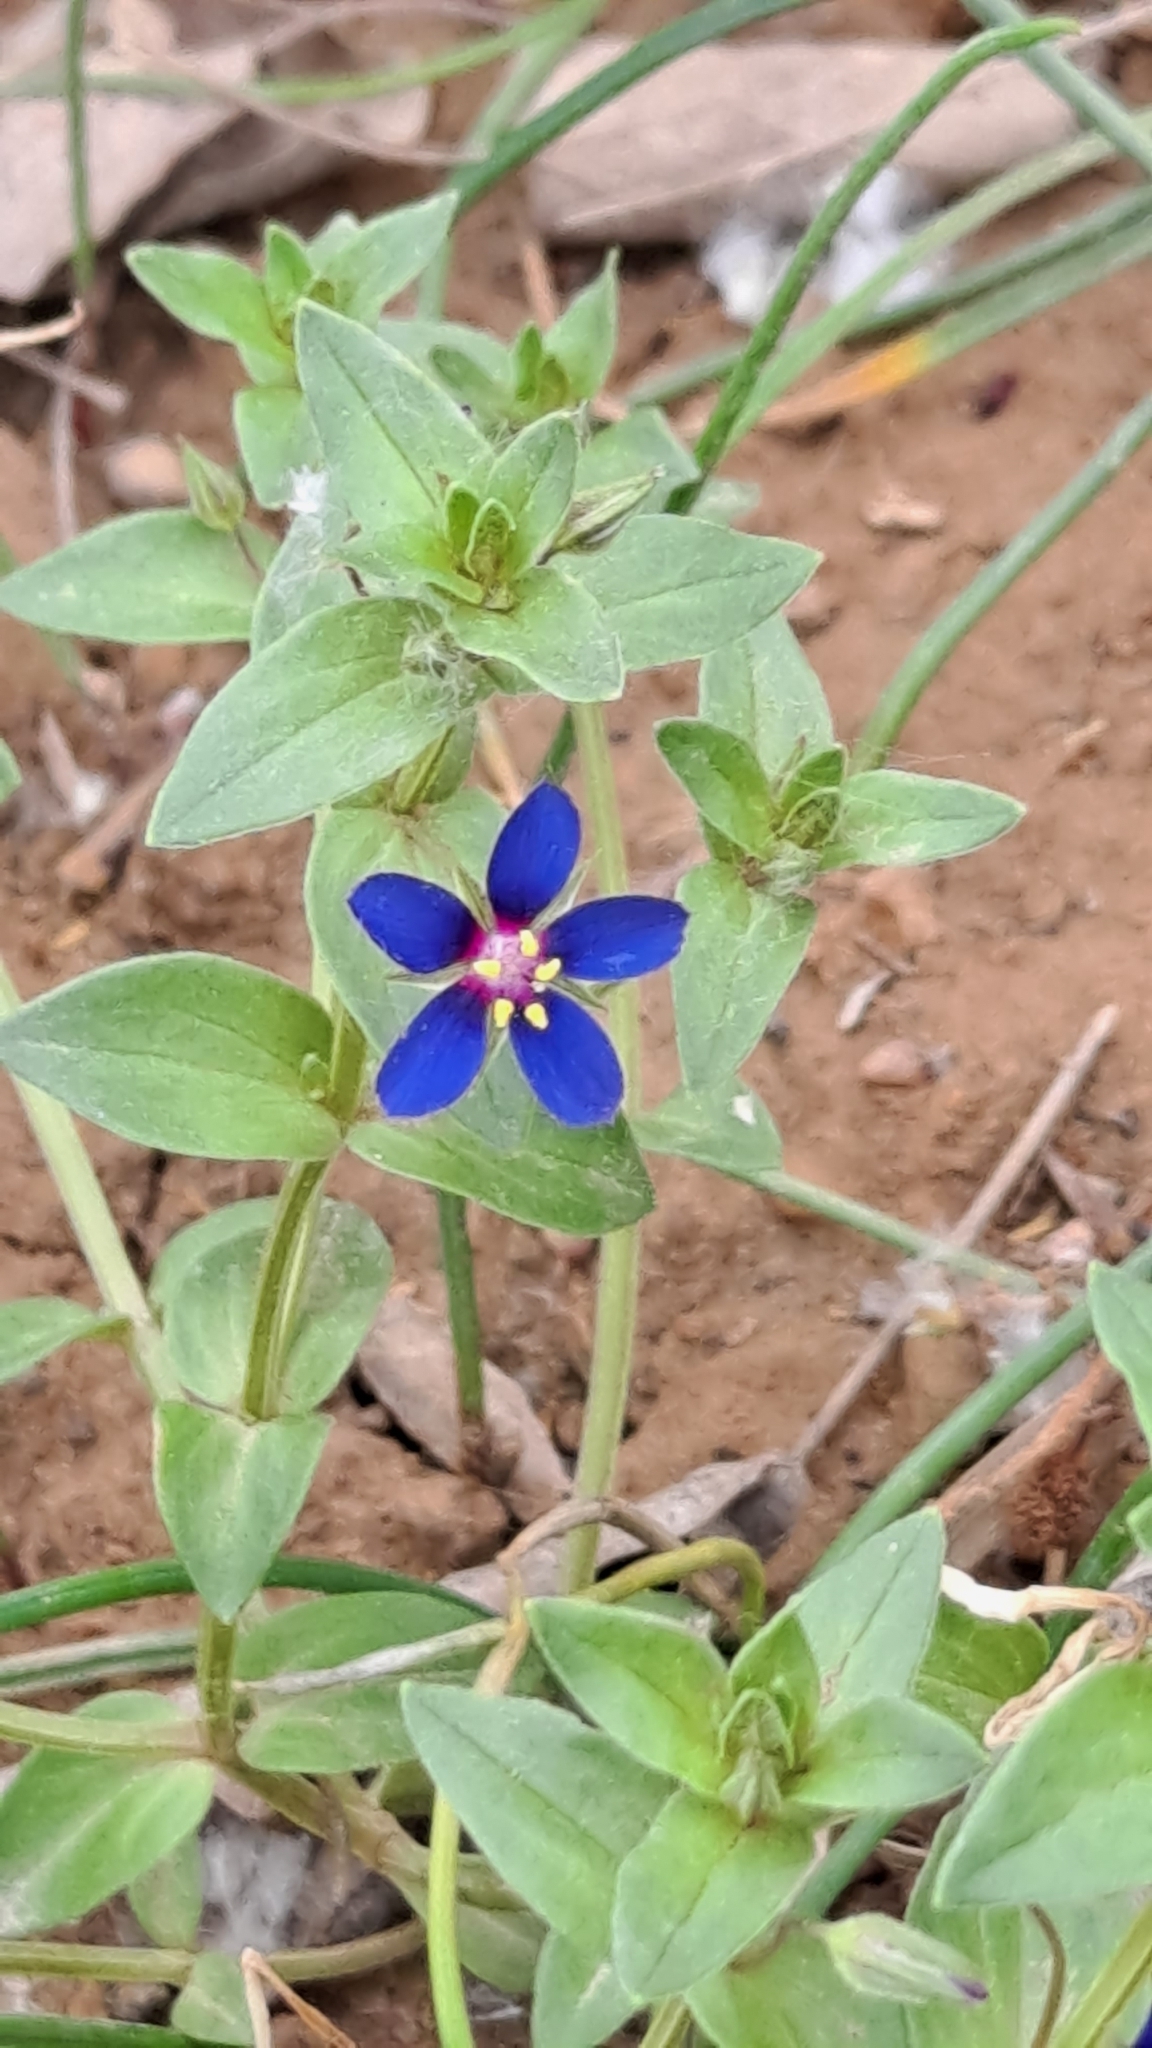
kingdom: Plantae
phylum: Tracheophyta
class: Magnoliopsida
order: Ericales
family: Primulaceae
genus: Lysimachia
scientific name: Lysimachia foemina
